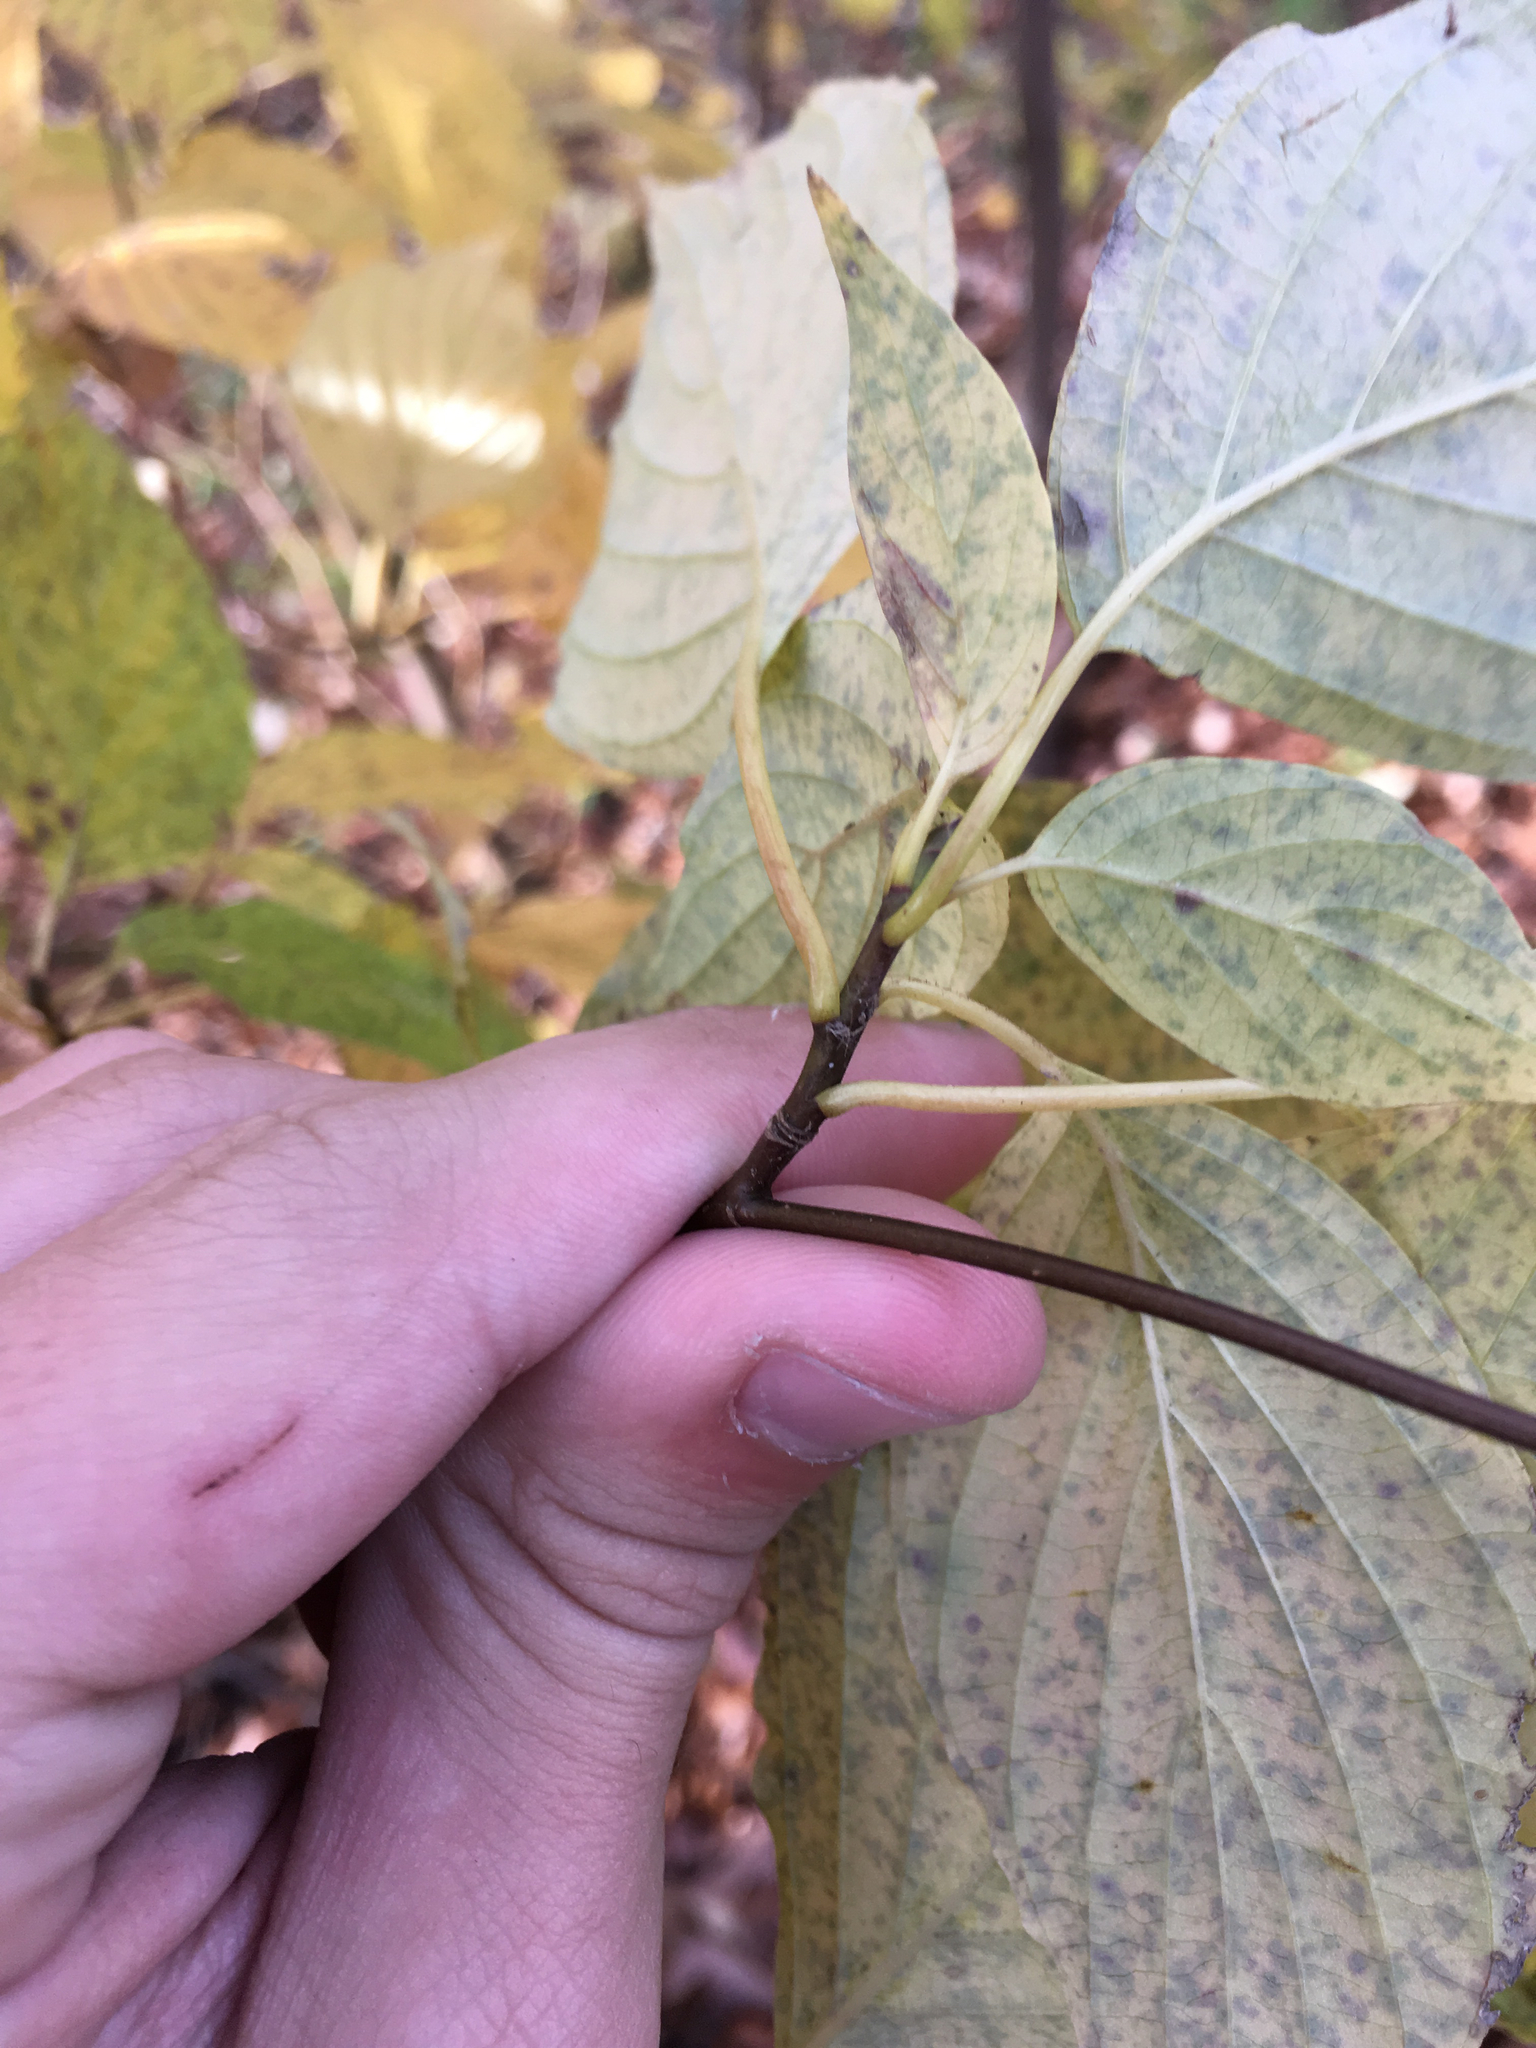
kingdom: Plantae
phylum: Tracheophyta
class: Magnoliopsida
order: Cornales
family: Cornaceae
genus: Cornus
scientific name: Cornus alternifolia
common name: Pagoda dogwood
